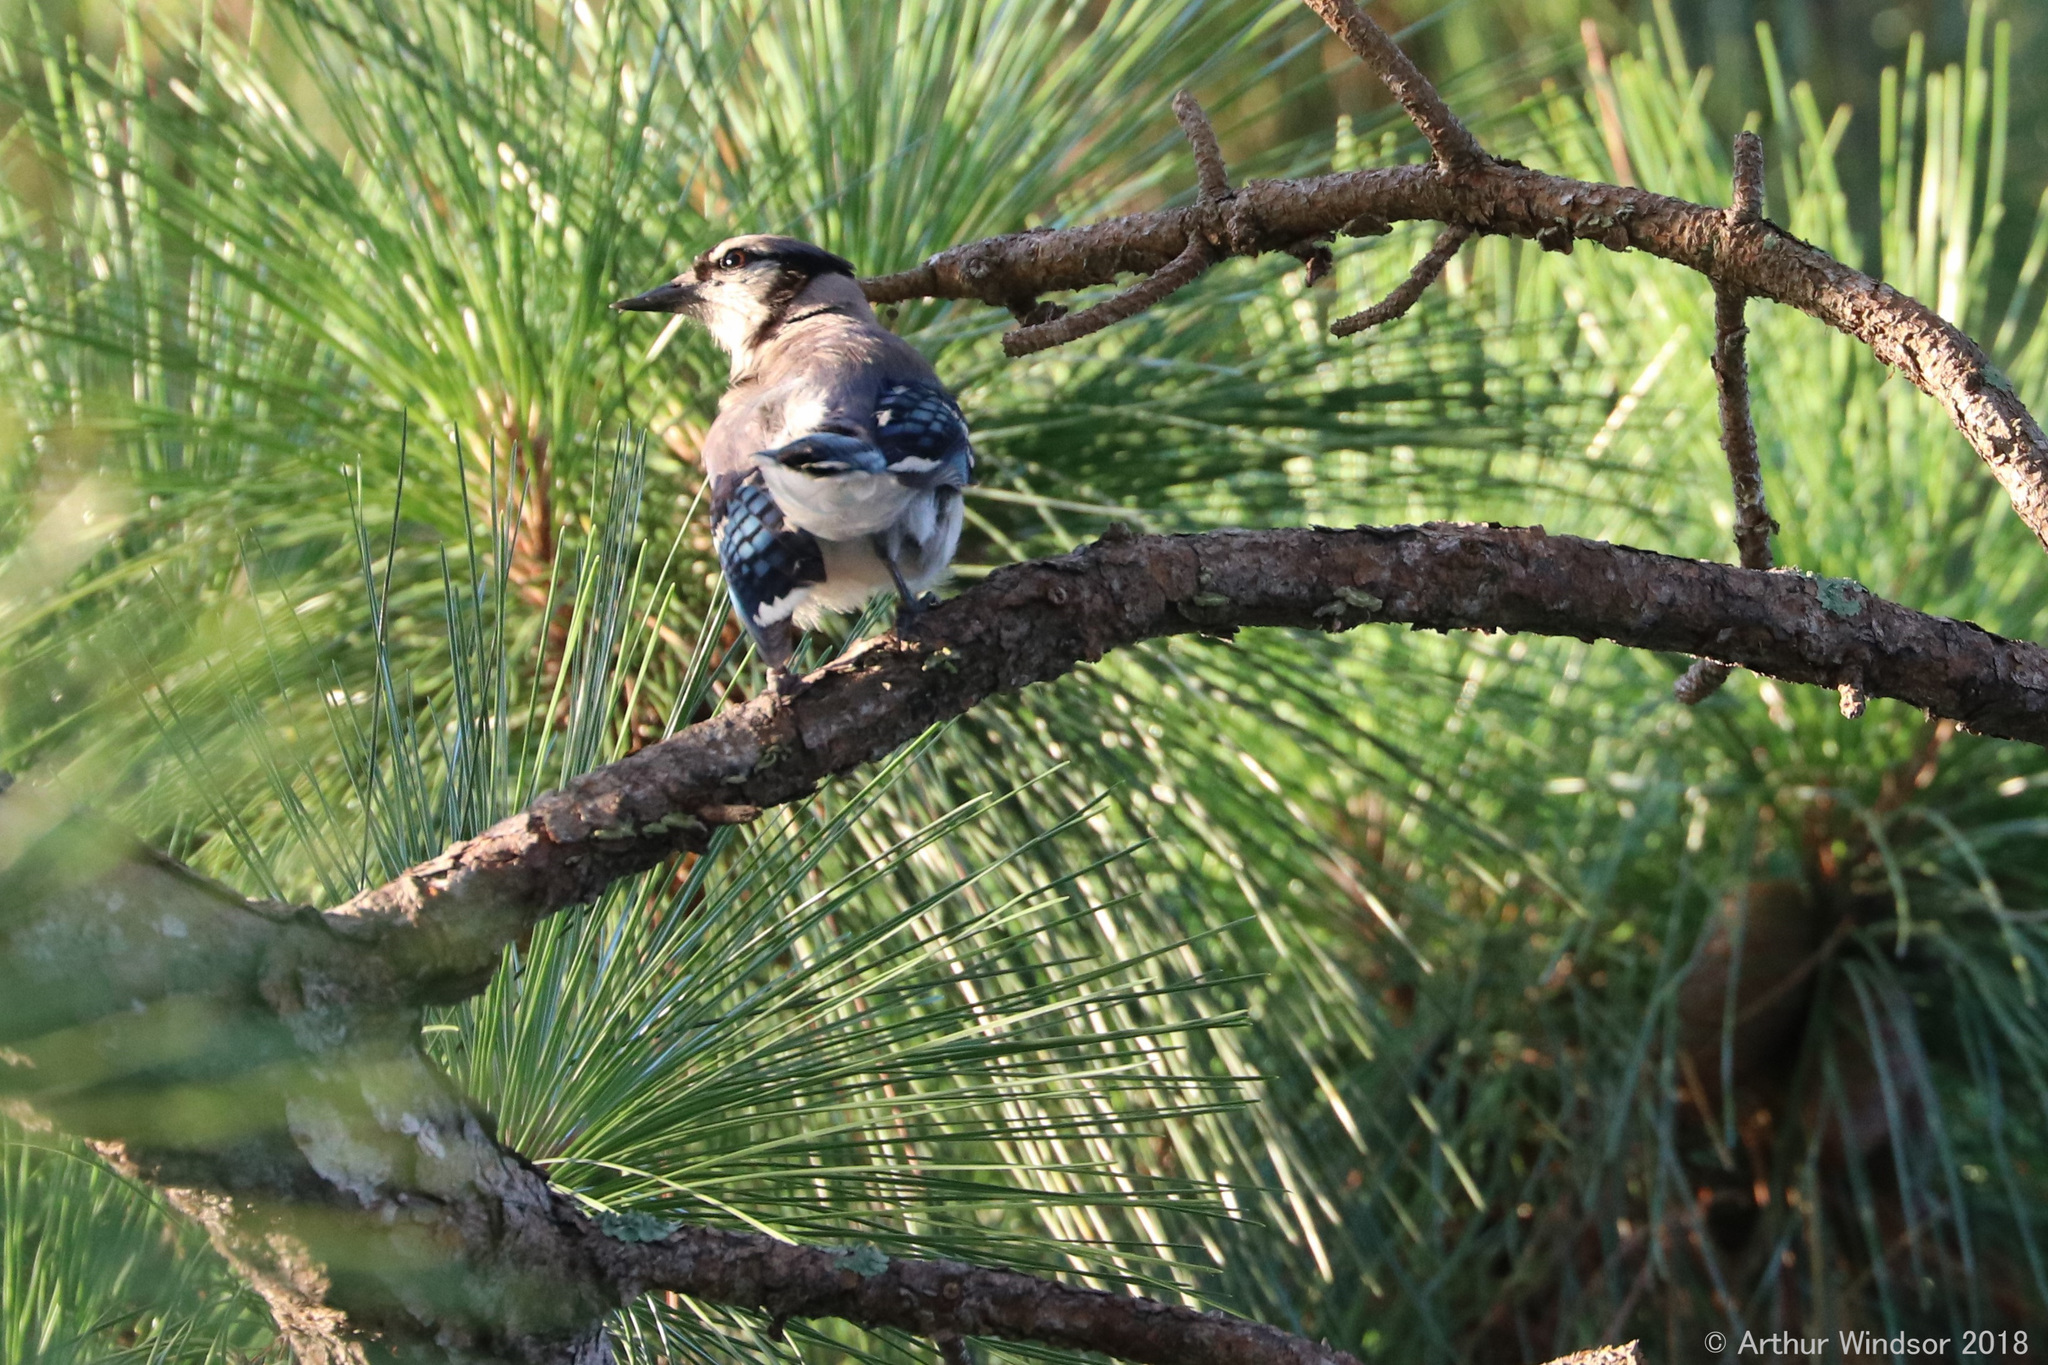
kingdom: Animalia
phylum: Chordata
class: Aves
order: Passeriformes
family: Corvidae
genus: Cyanocitta
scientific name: Cyanocitta cristata
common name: Blue jay
